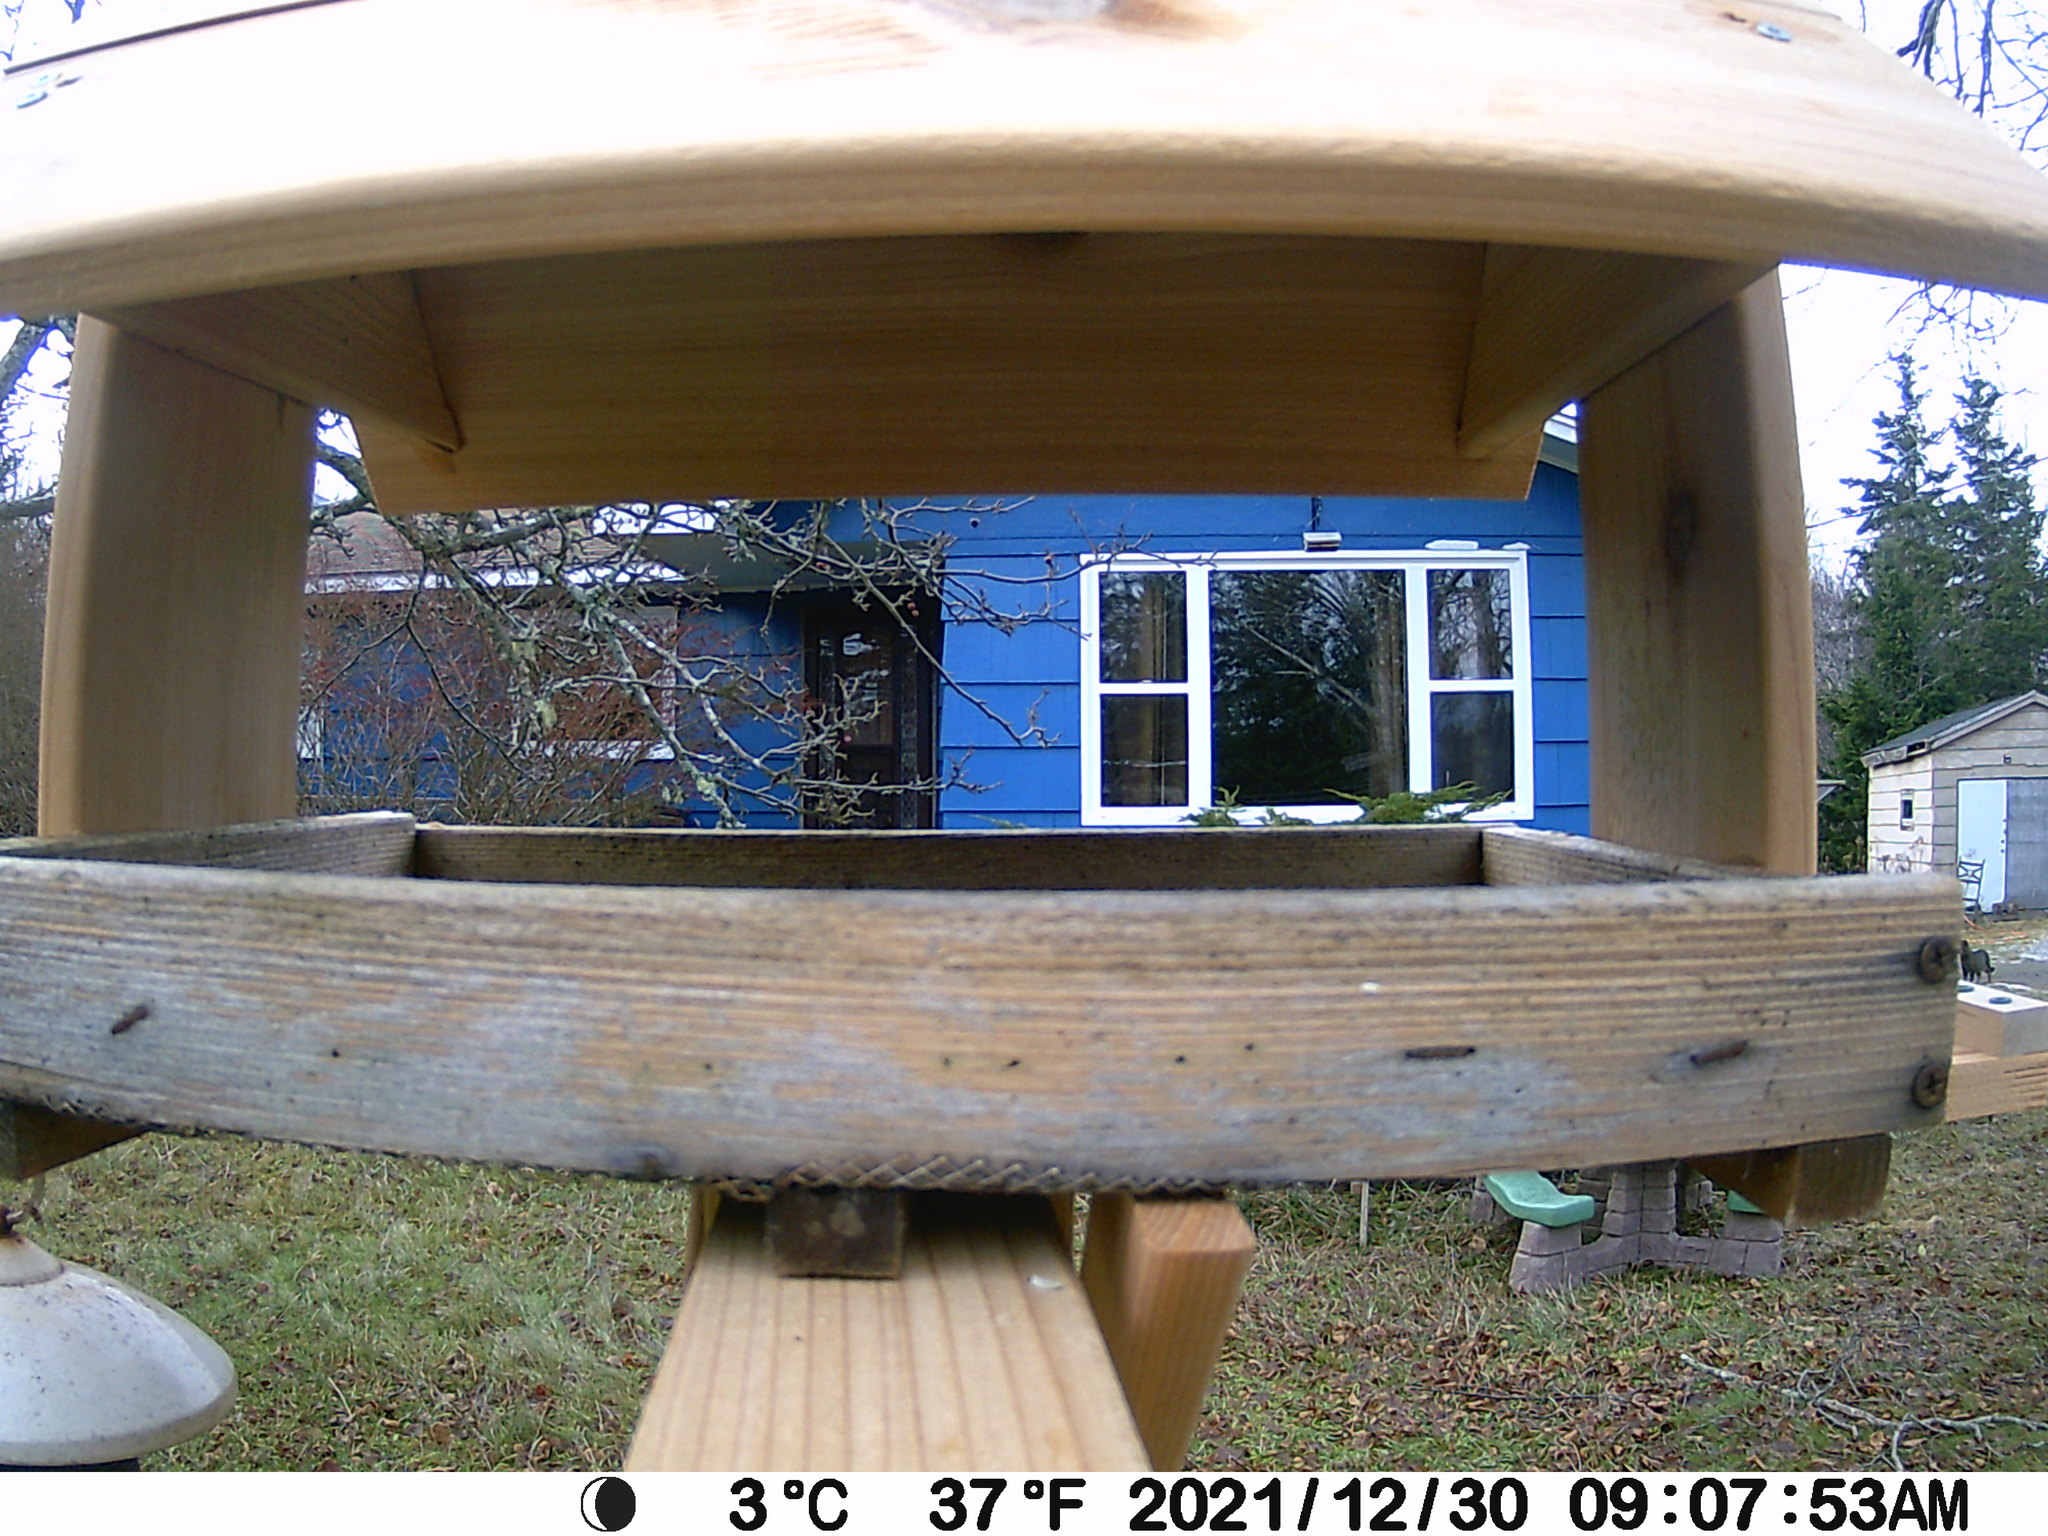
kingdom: Animalia
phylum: Chordata
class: Mammalia
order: Carnivora
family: Felidae
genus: Felis
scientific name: Felis catus
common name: Domestic cat
